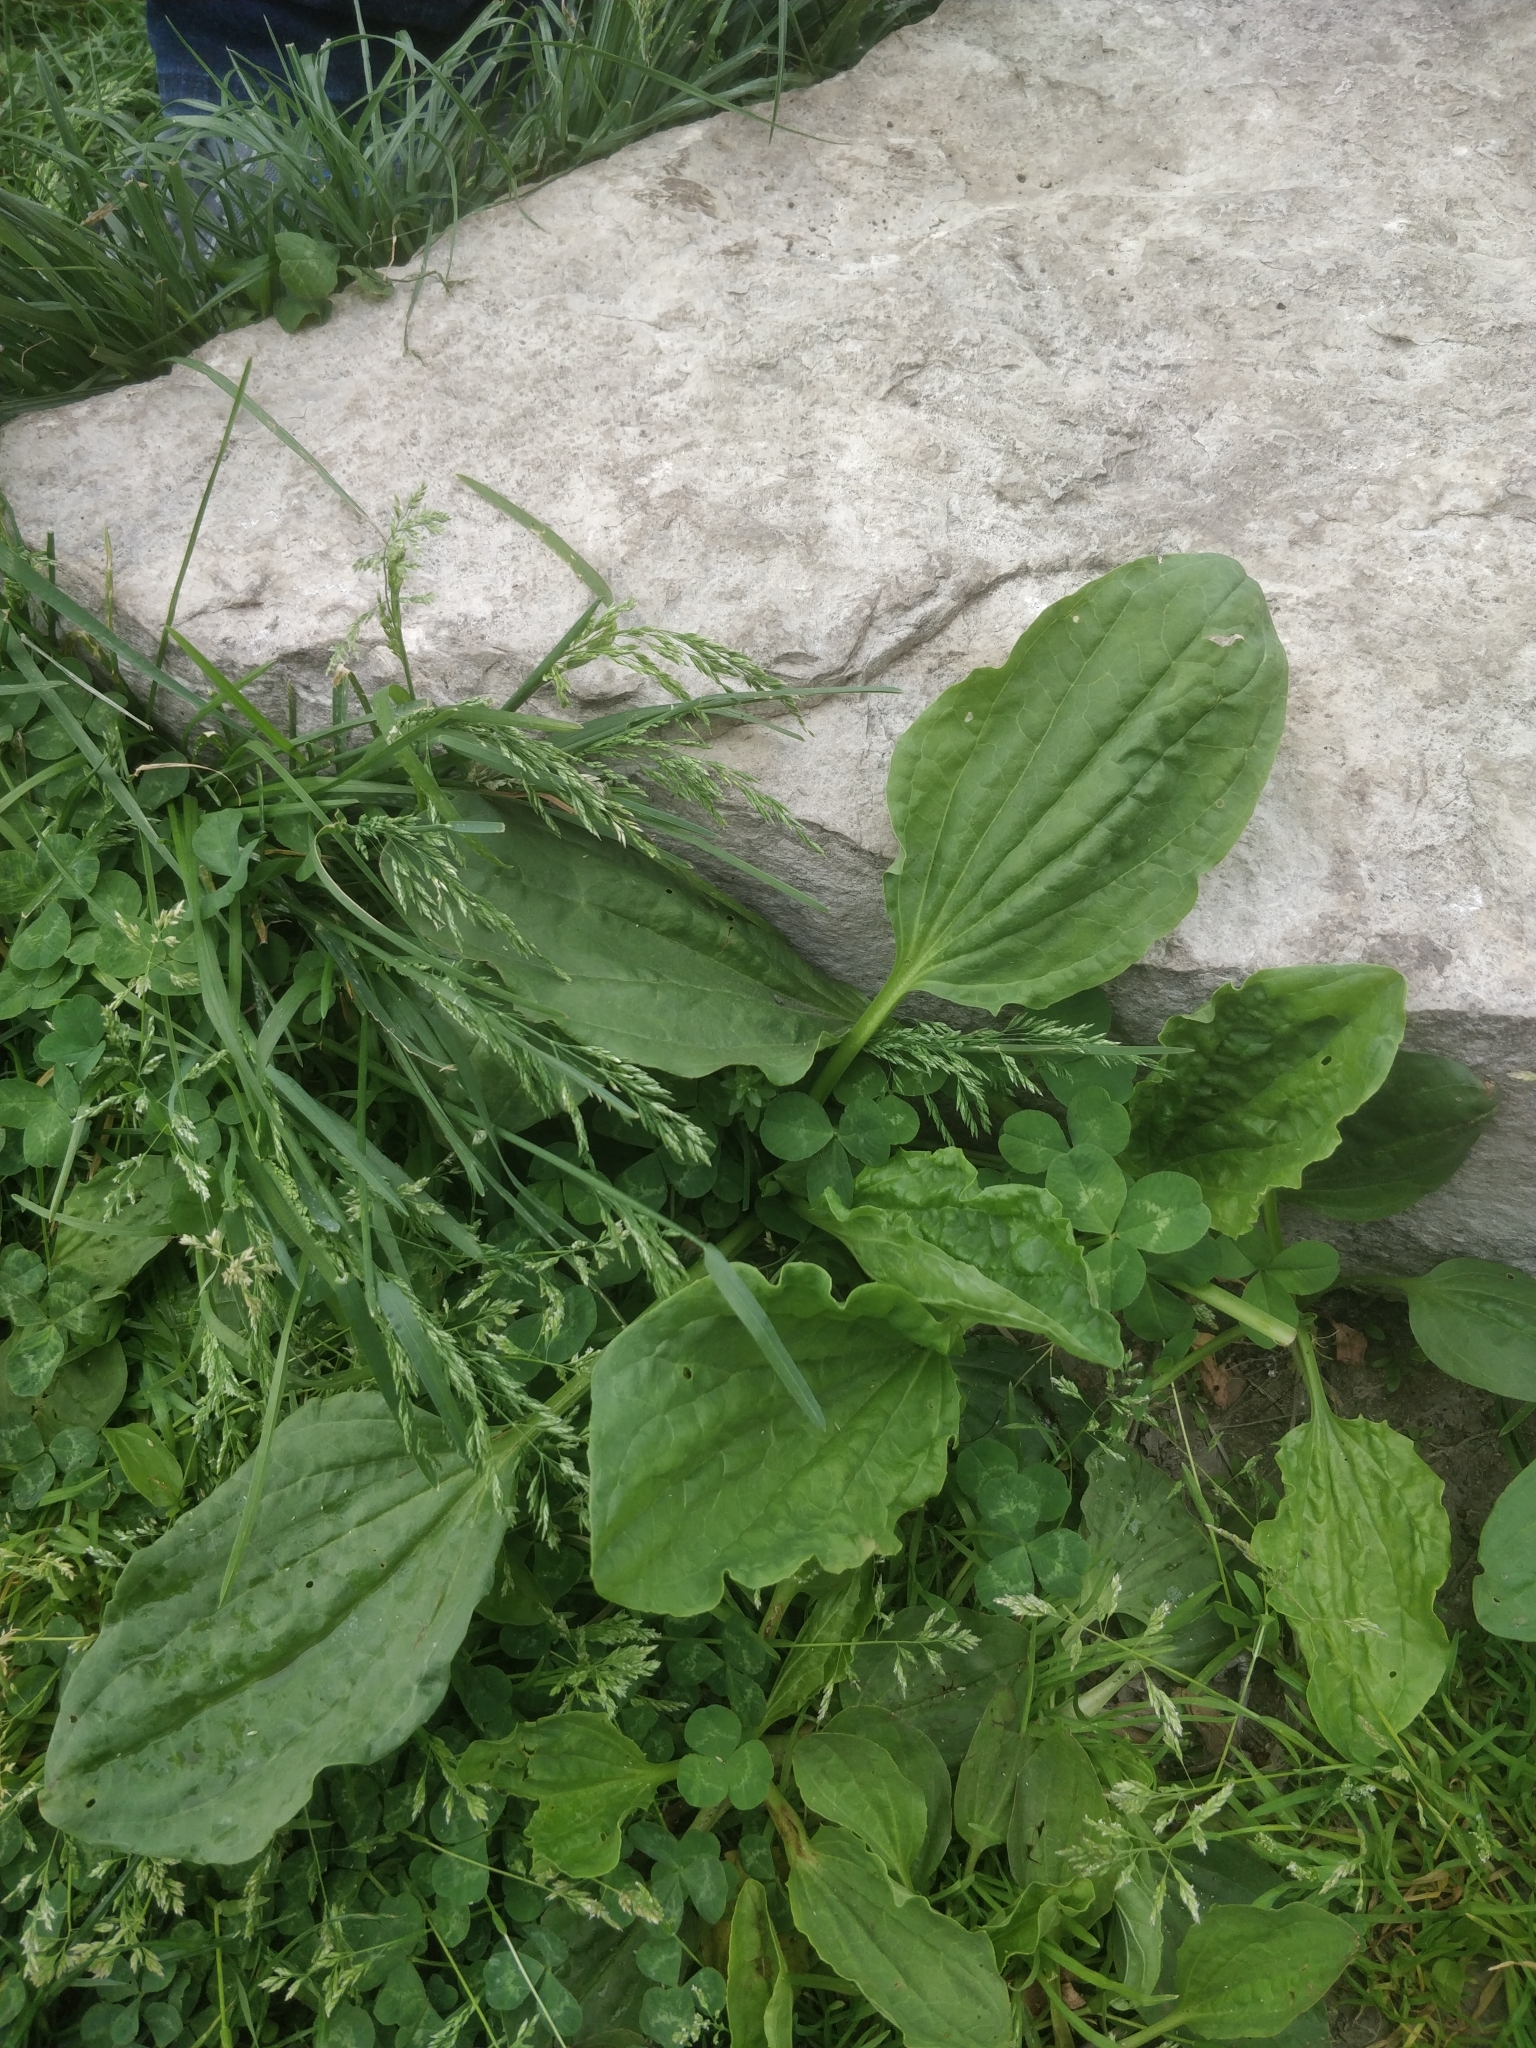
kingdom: Plantae
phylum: Tracheophyta
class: Magnoliopsida
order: Lamiales
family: Plantaginaceae
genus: Plantago
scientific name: Plantago major
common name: Common plantain
